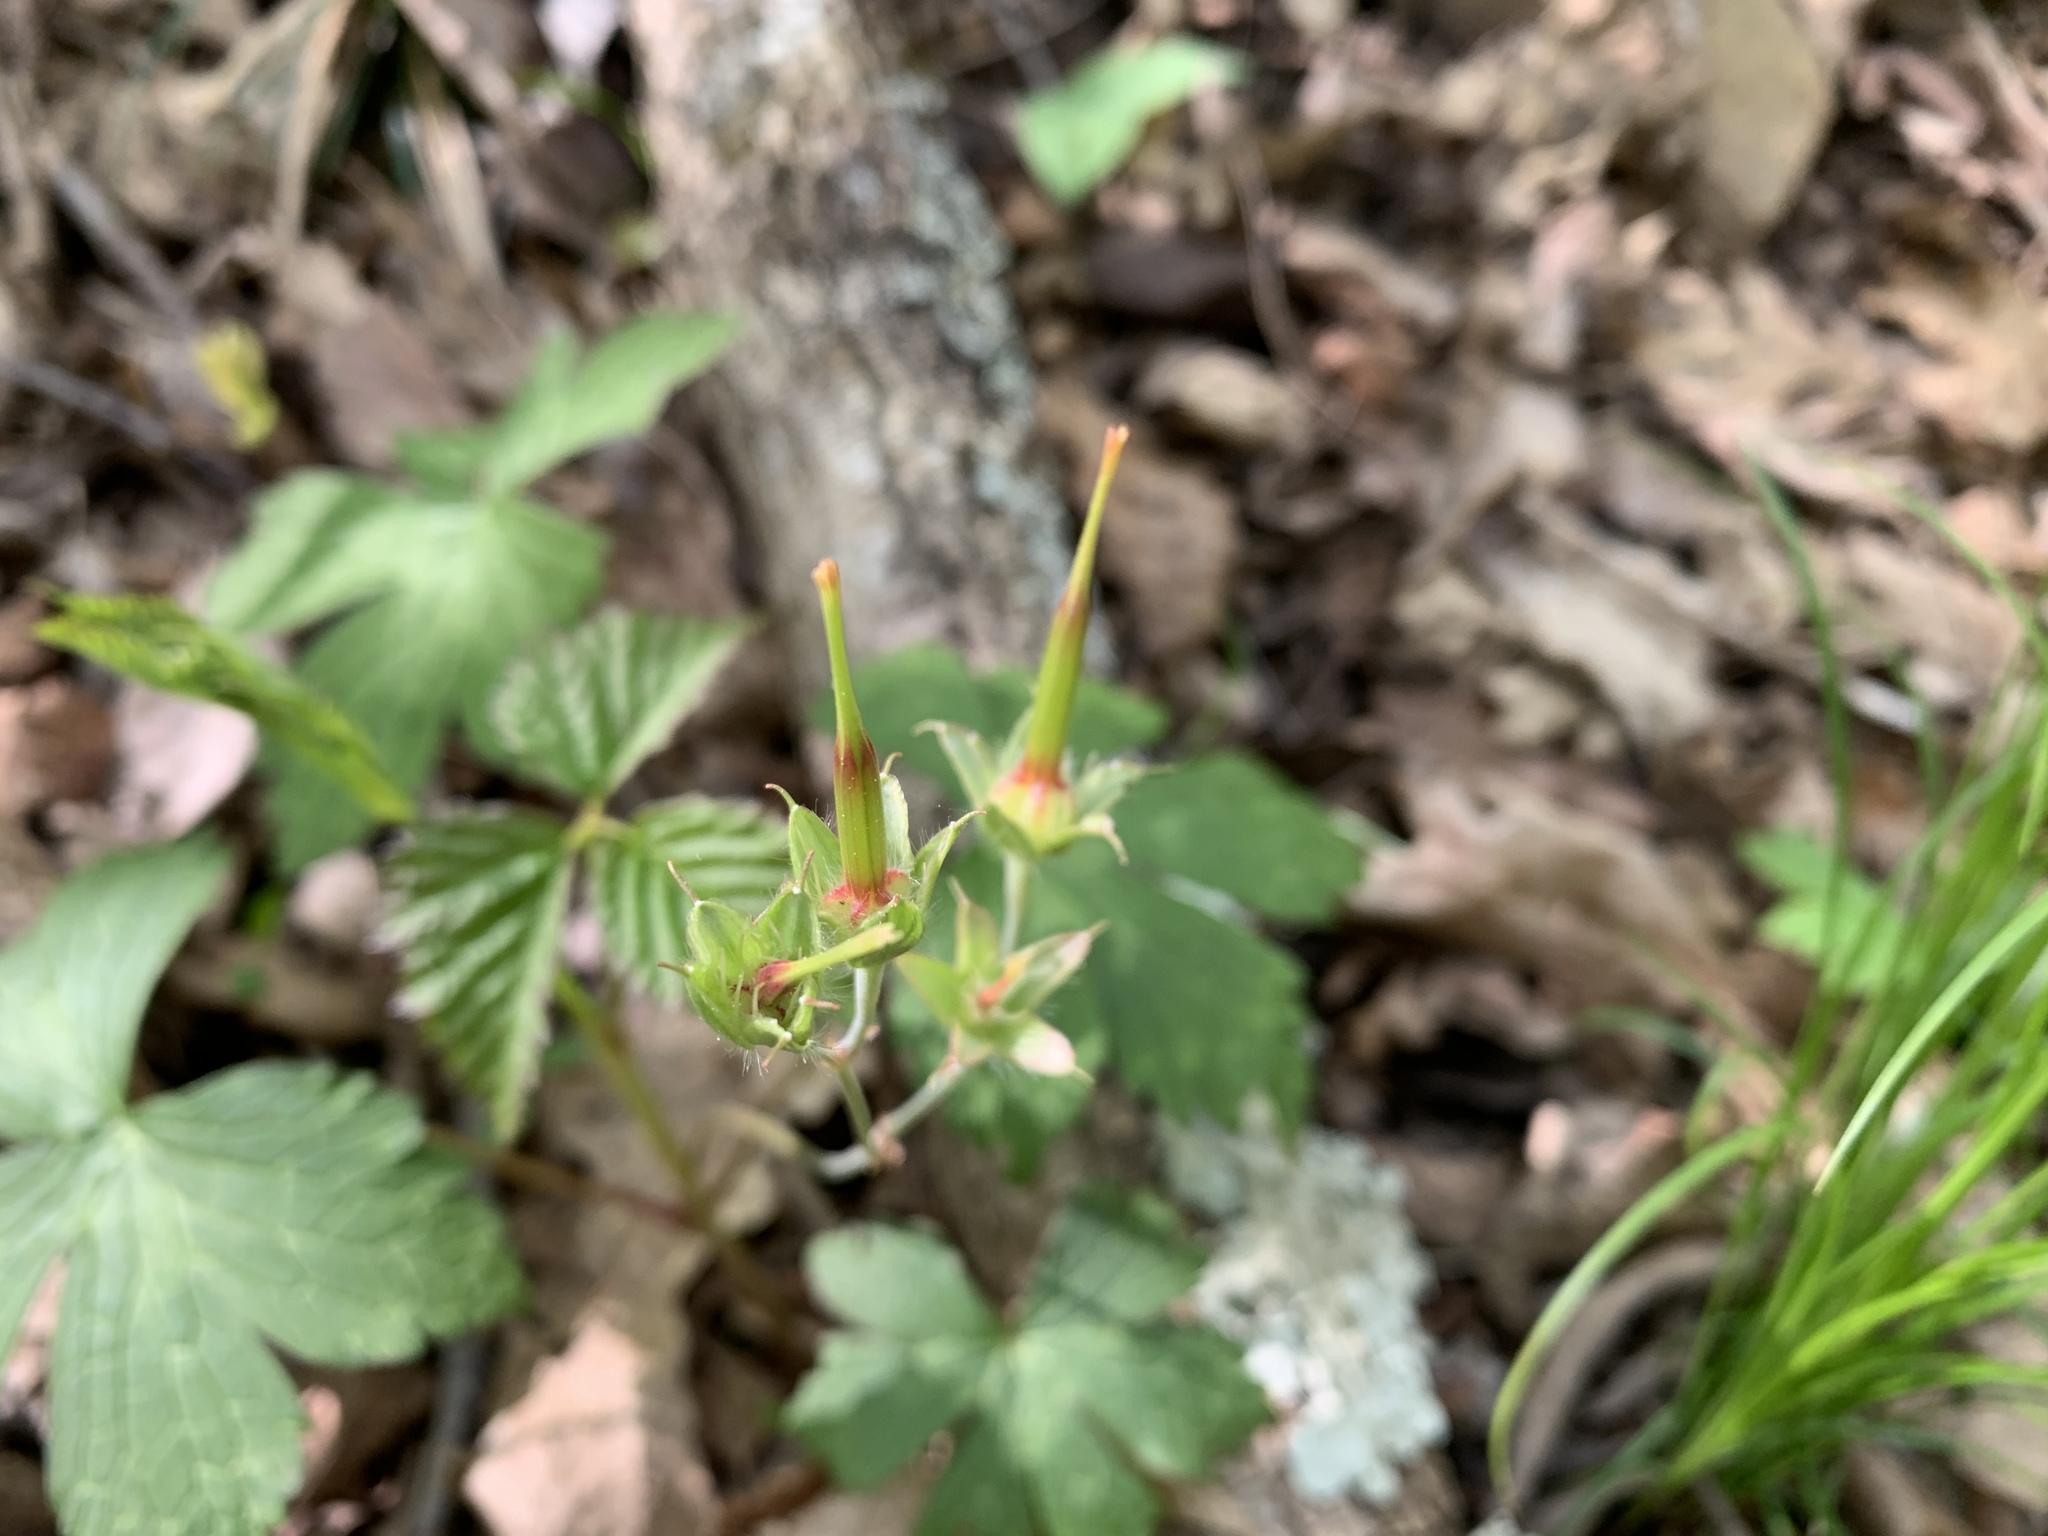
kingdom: Plantae
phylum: Tracheophyta
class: Magnoliopsida
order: Geraniales
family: Geraniaceae
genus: Geranium
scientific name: Geranium maculatum
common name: Spotted geranium
